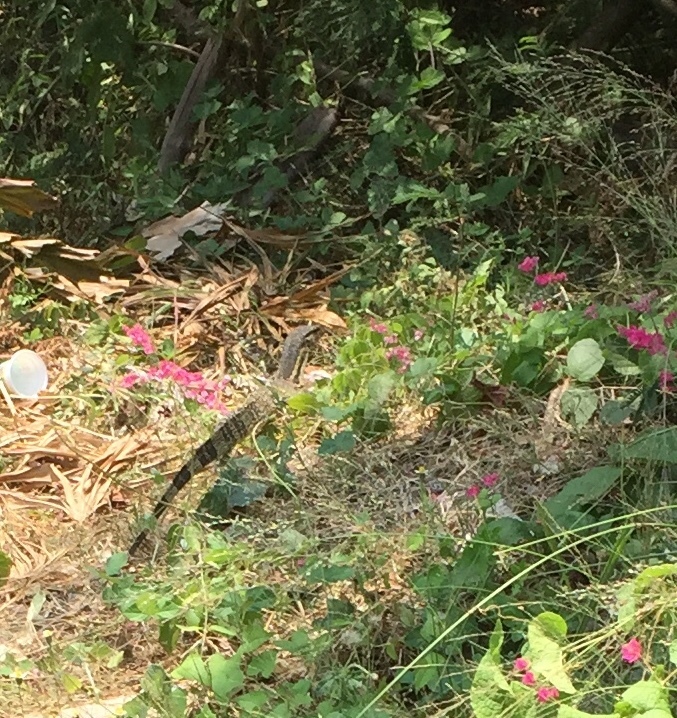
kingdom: Animalia
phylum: Chordata
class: Squamata
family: Varanidae
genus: Varanus
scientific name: Varanus salvator
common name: Common water monitor
